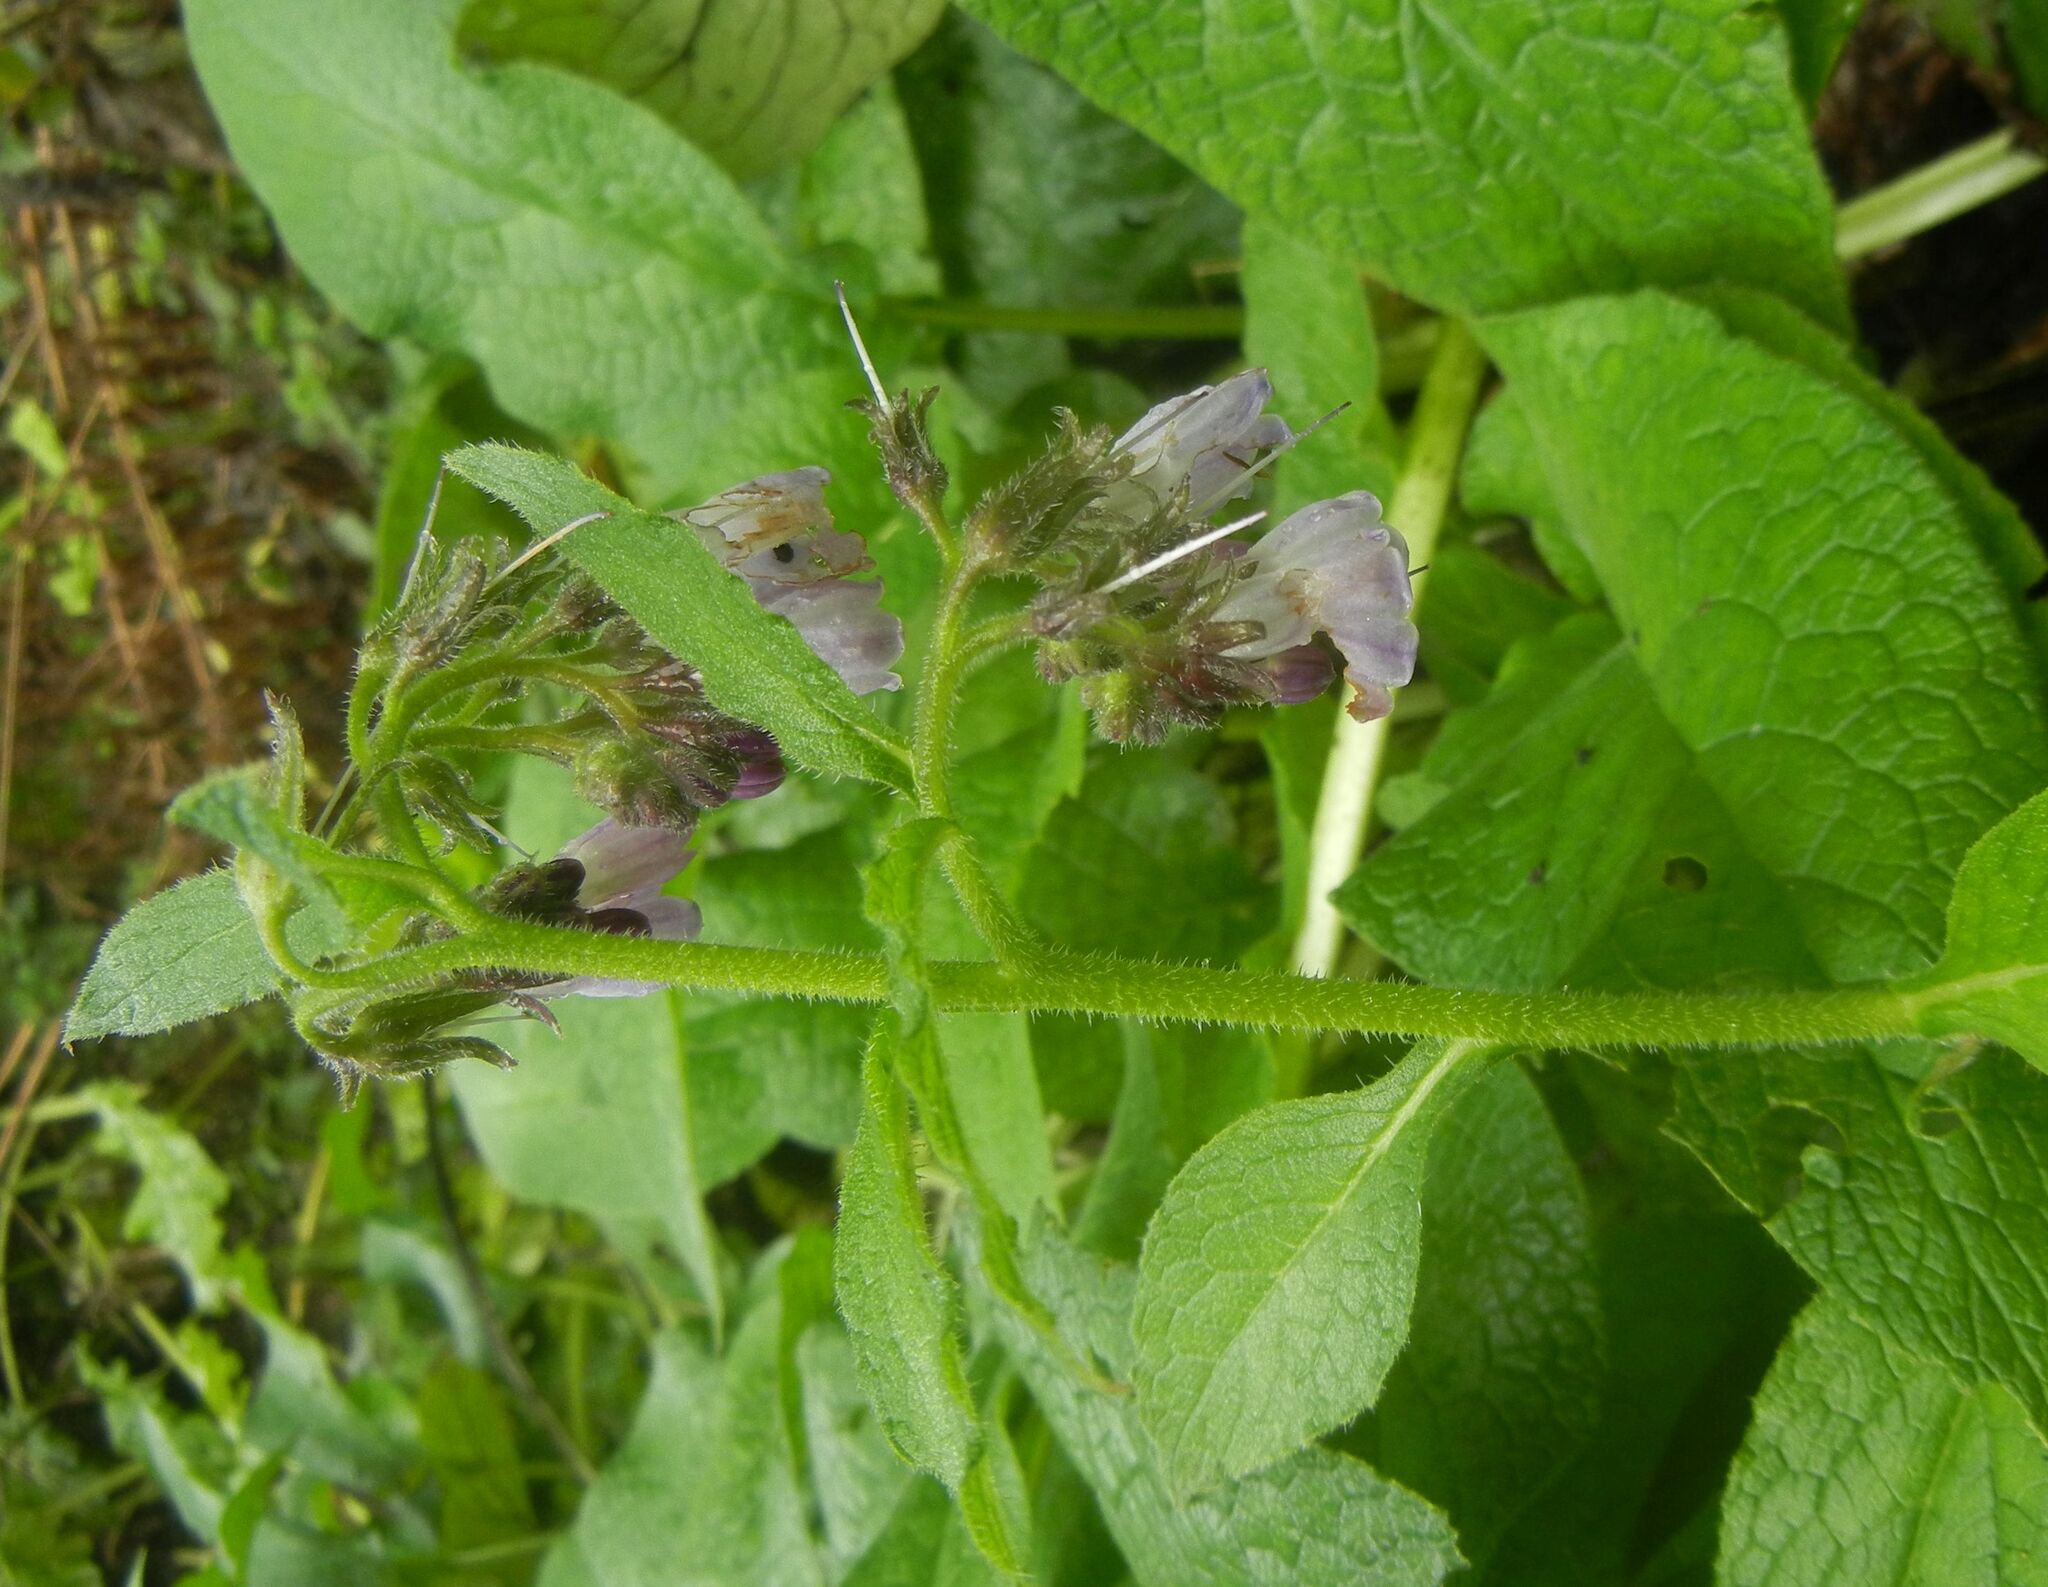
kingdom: Plantae
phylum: Tracheophyta
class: Magnoliopsida
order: Boraginales
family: Boraginaceae
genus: Symphytum
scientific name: Symphytum uplandicum
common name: Russian comfrey
